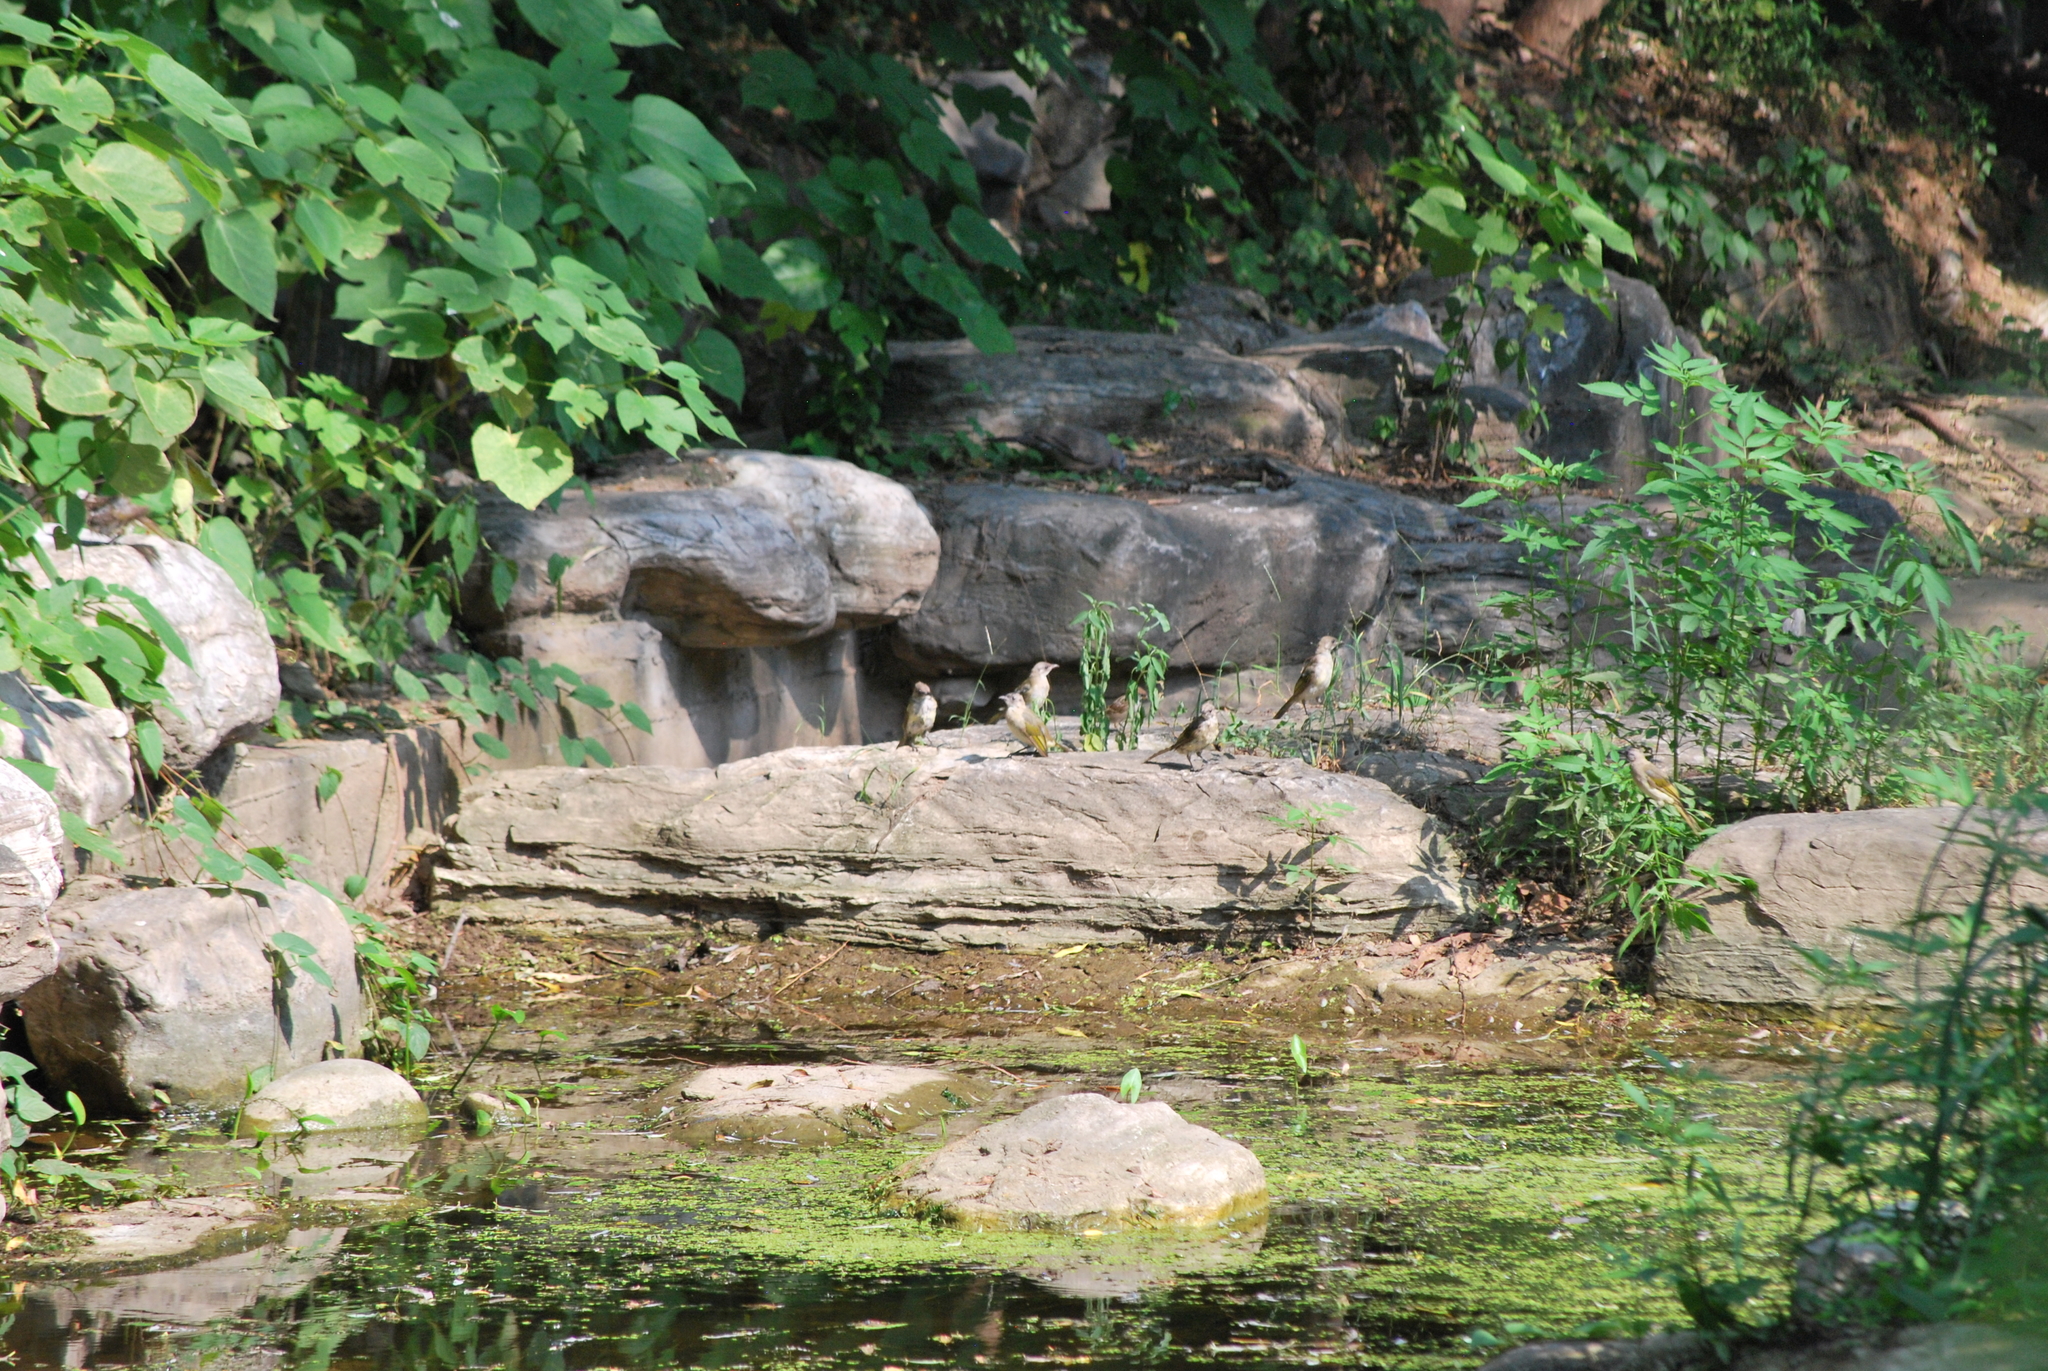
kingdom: Animalia
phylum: Chordata
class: Aves
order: Passeriformes
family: Pycnonotidae
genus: Pycnonotus
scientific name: Pycnonotus sinensis
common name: Light-vented bulbul
